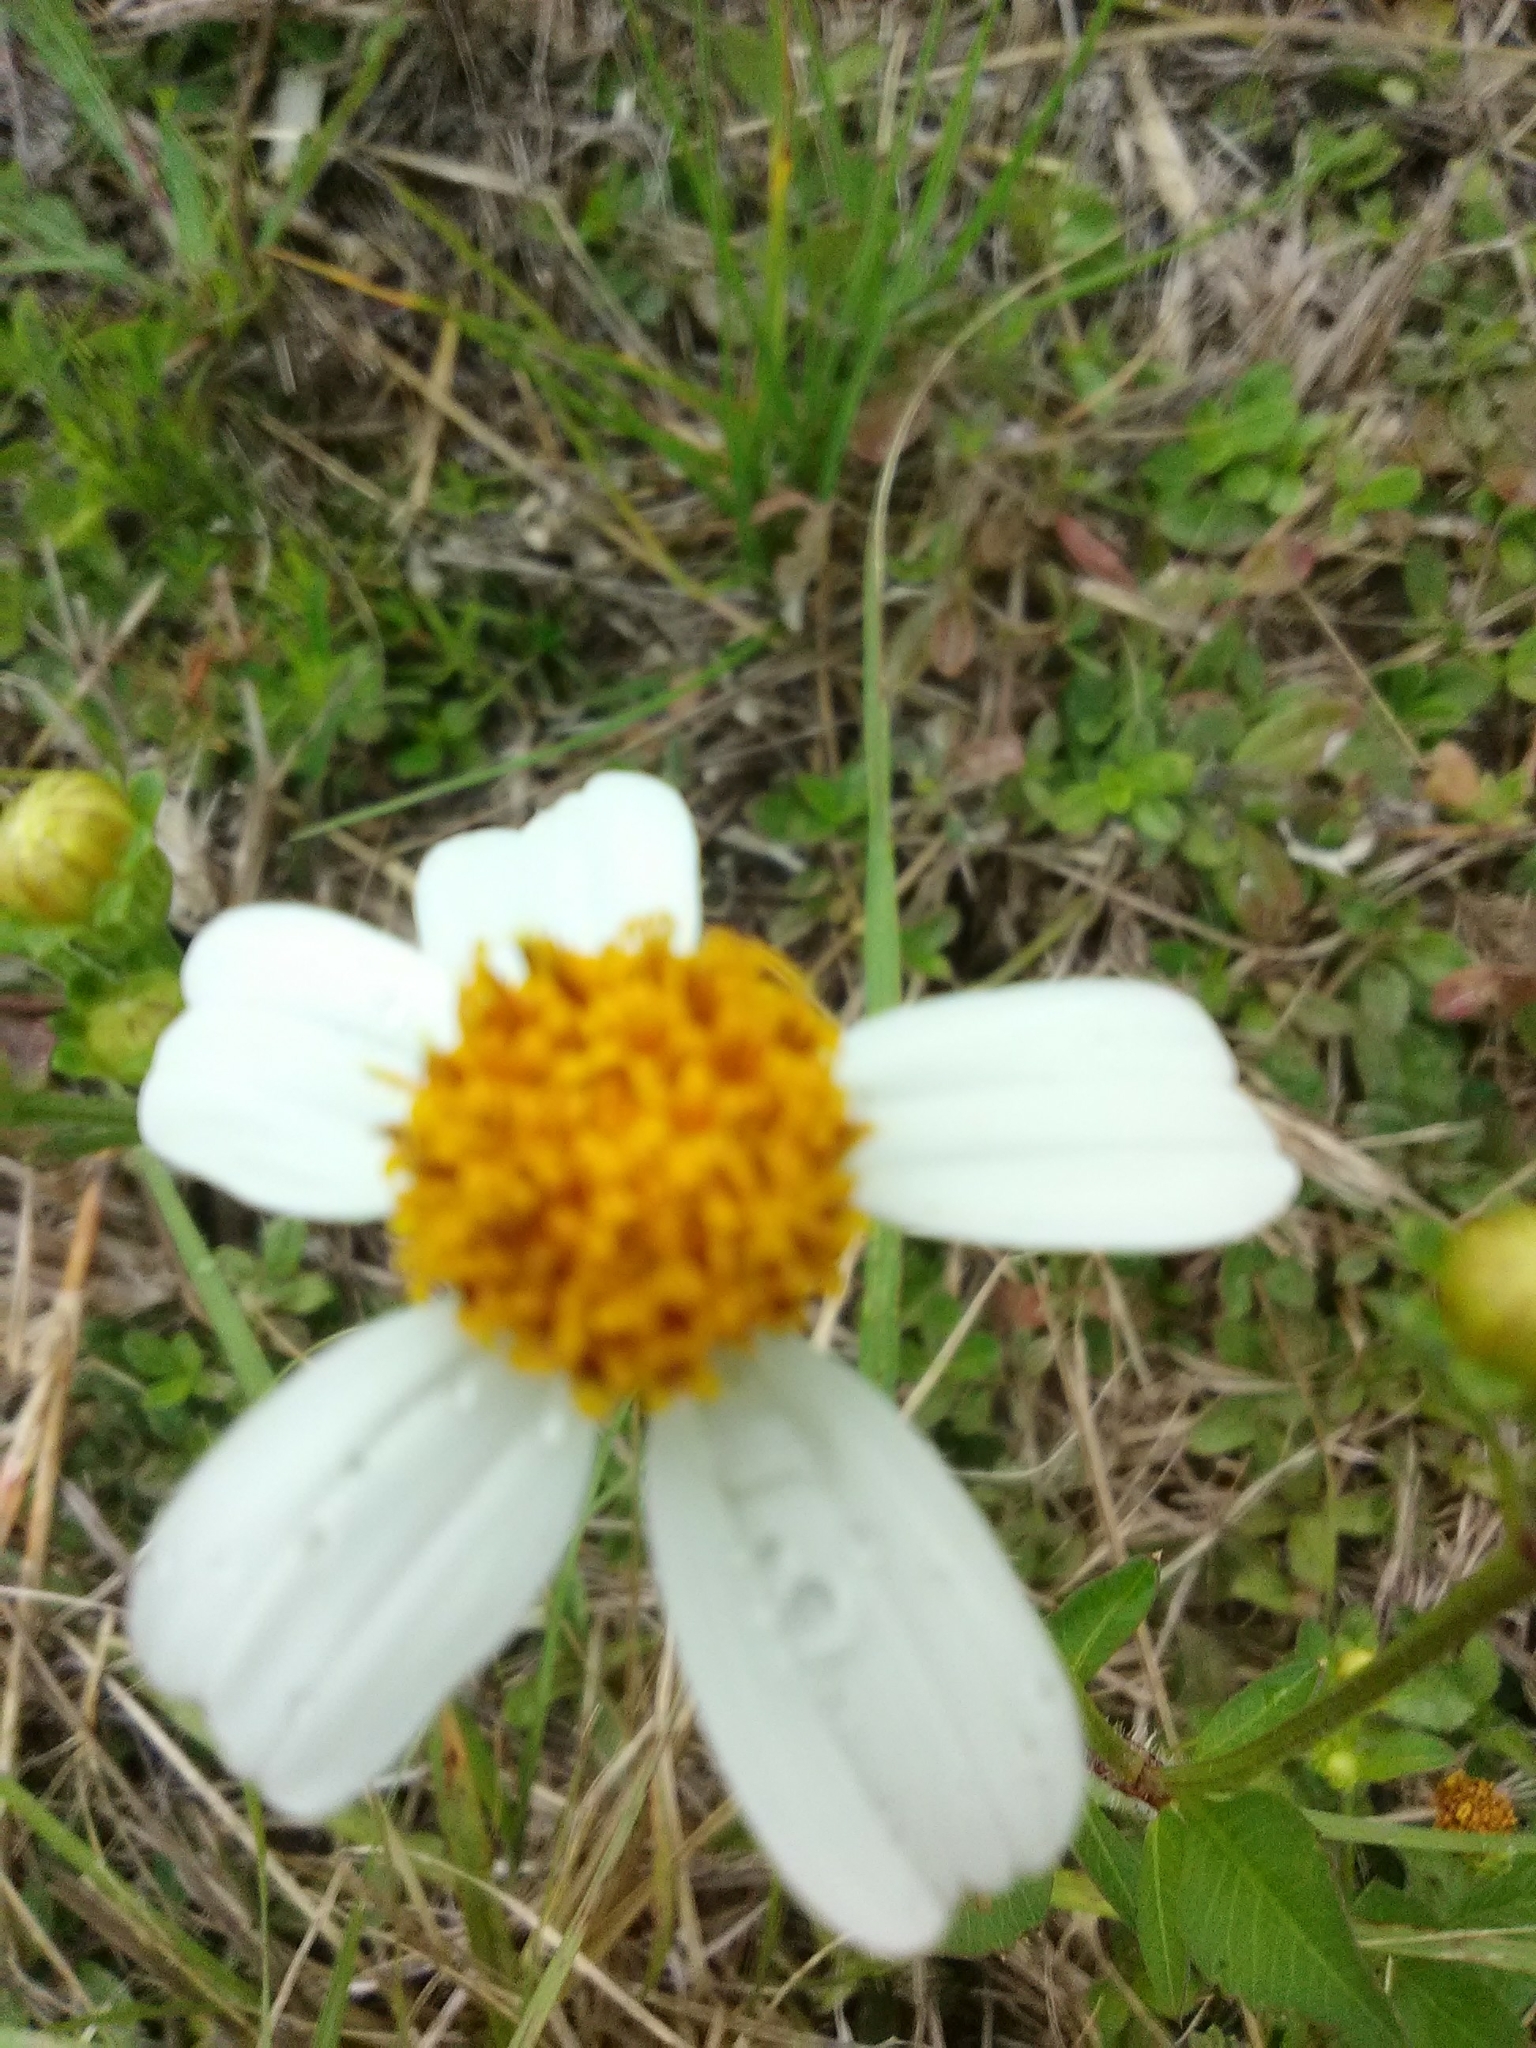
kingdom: Plantae
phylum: Tracheophyta
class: Magnoliopsida
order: Asterales
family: Asteraceae
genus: Bidens
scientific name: Bidens alba
